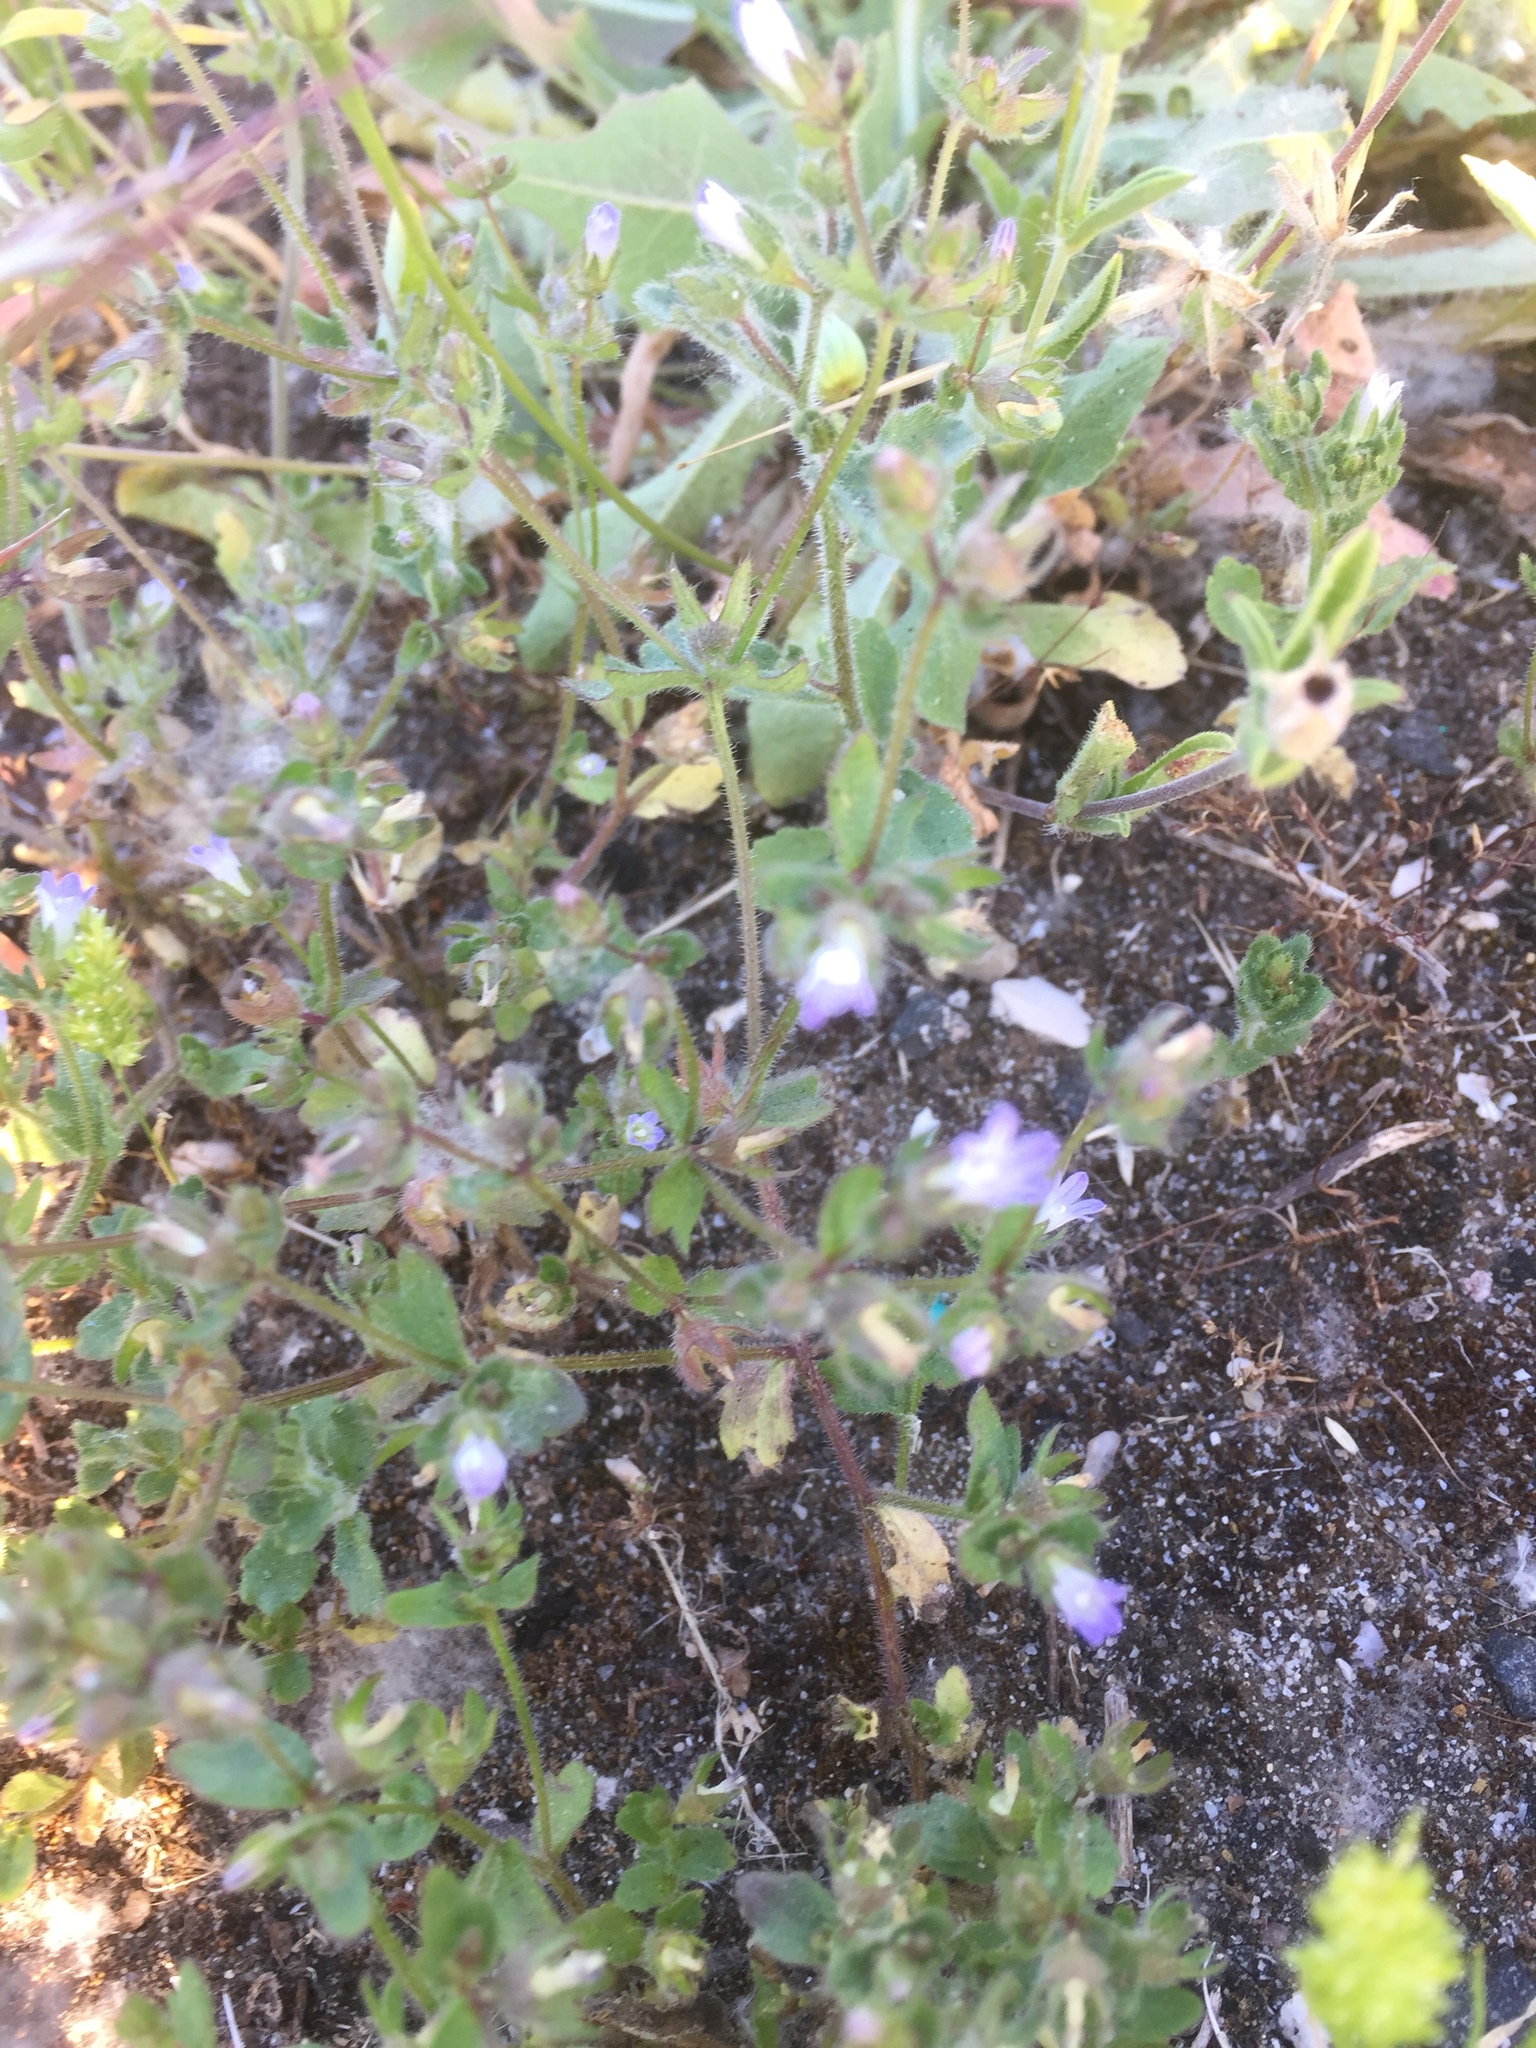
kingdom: Plantae
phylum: Tracheophyta
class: Magnoliopsida
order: Asterales
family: Campanulaceae
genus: Campanula
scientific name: Campanula erinus
